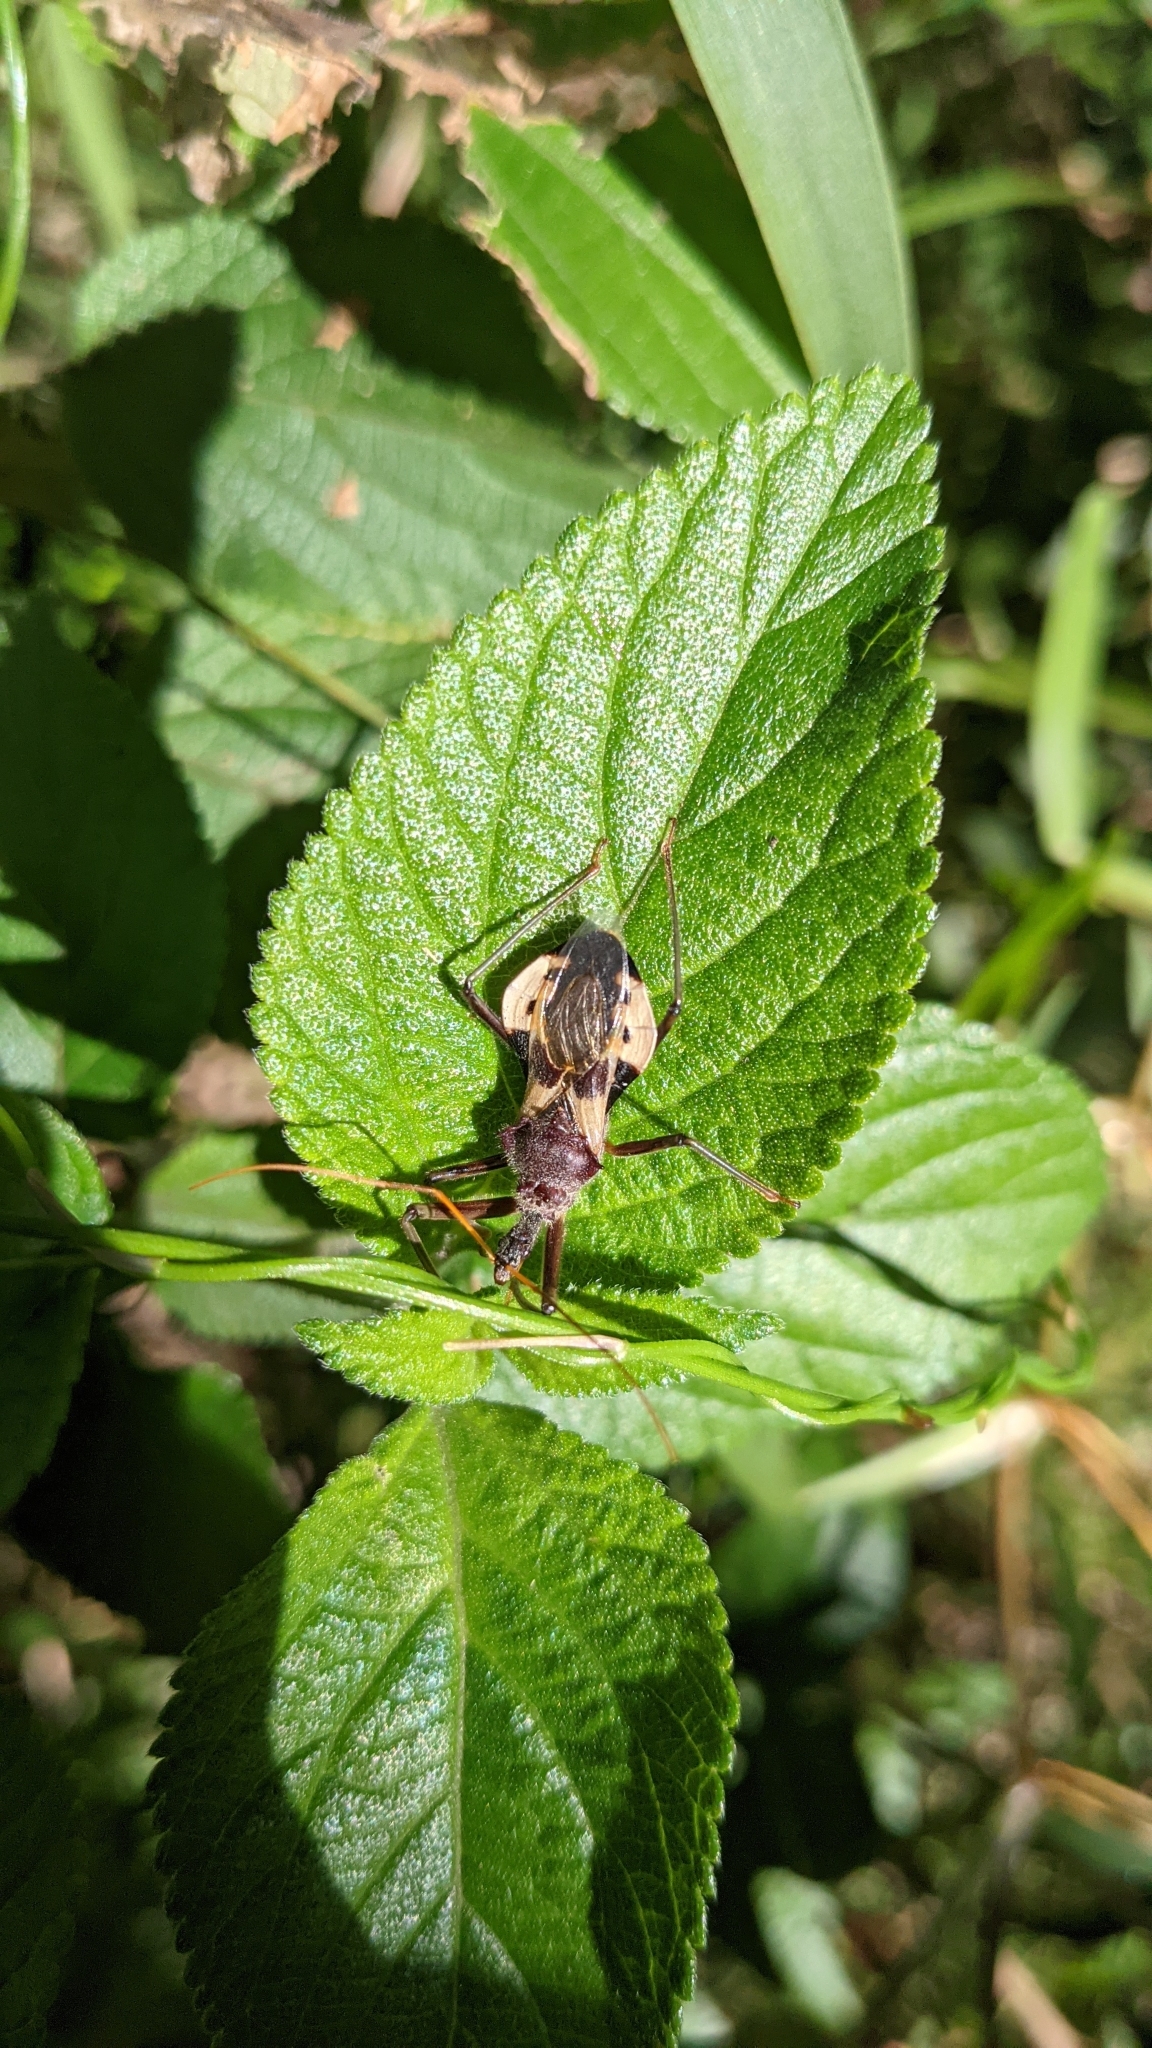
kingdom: Animalia
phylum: Arthropoda
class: Insecta
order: Hemiptera
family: Reduviidae
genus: Pristhesancus
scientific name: Pristhesancus plagipennis
